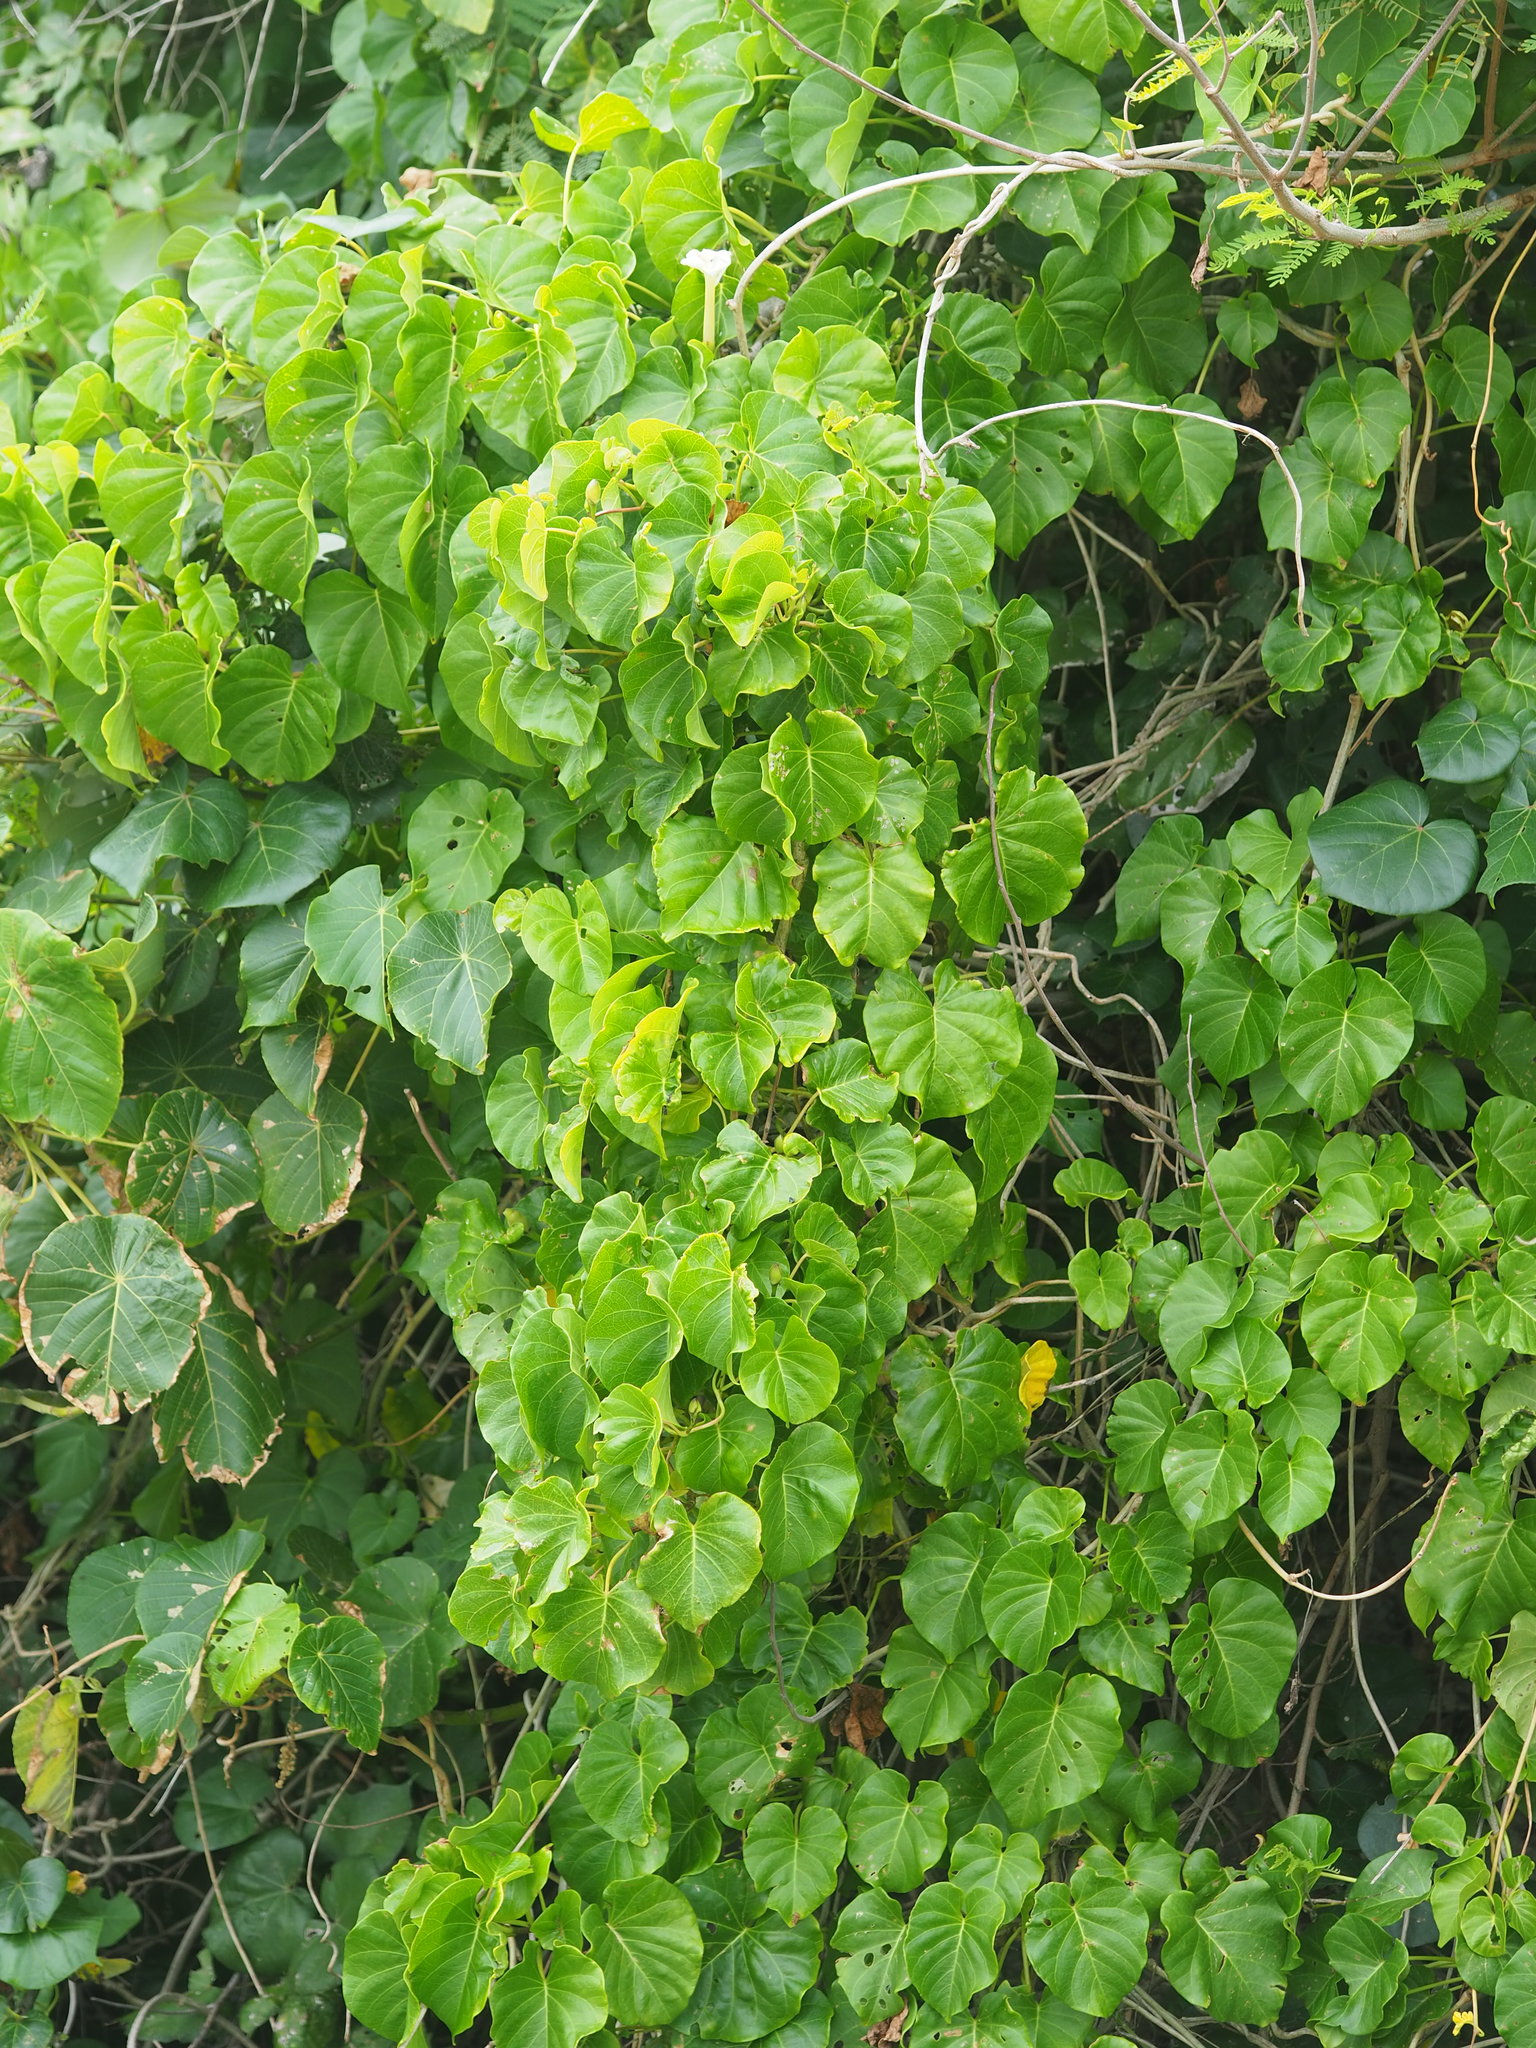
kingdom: Plantae
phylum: Tracheophyta
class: Magnoliopsida
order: Solanales
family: Convolvulaceae
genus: Ipomoea
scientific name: Ipomoea violacea
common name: Beach moonflower
